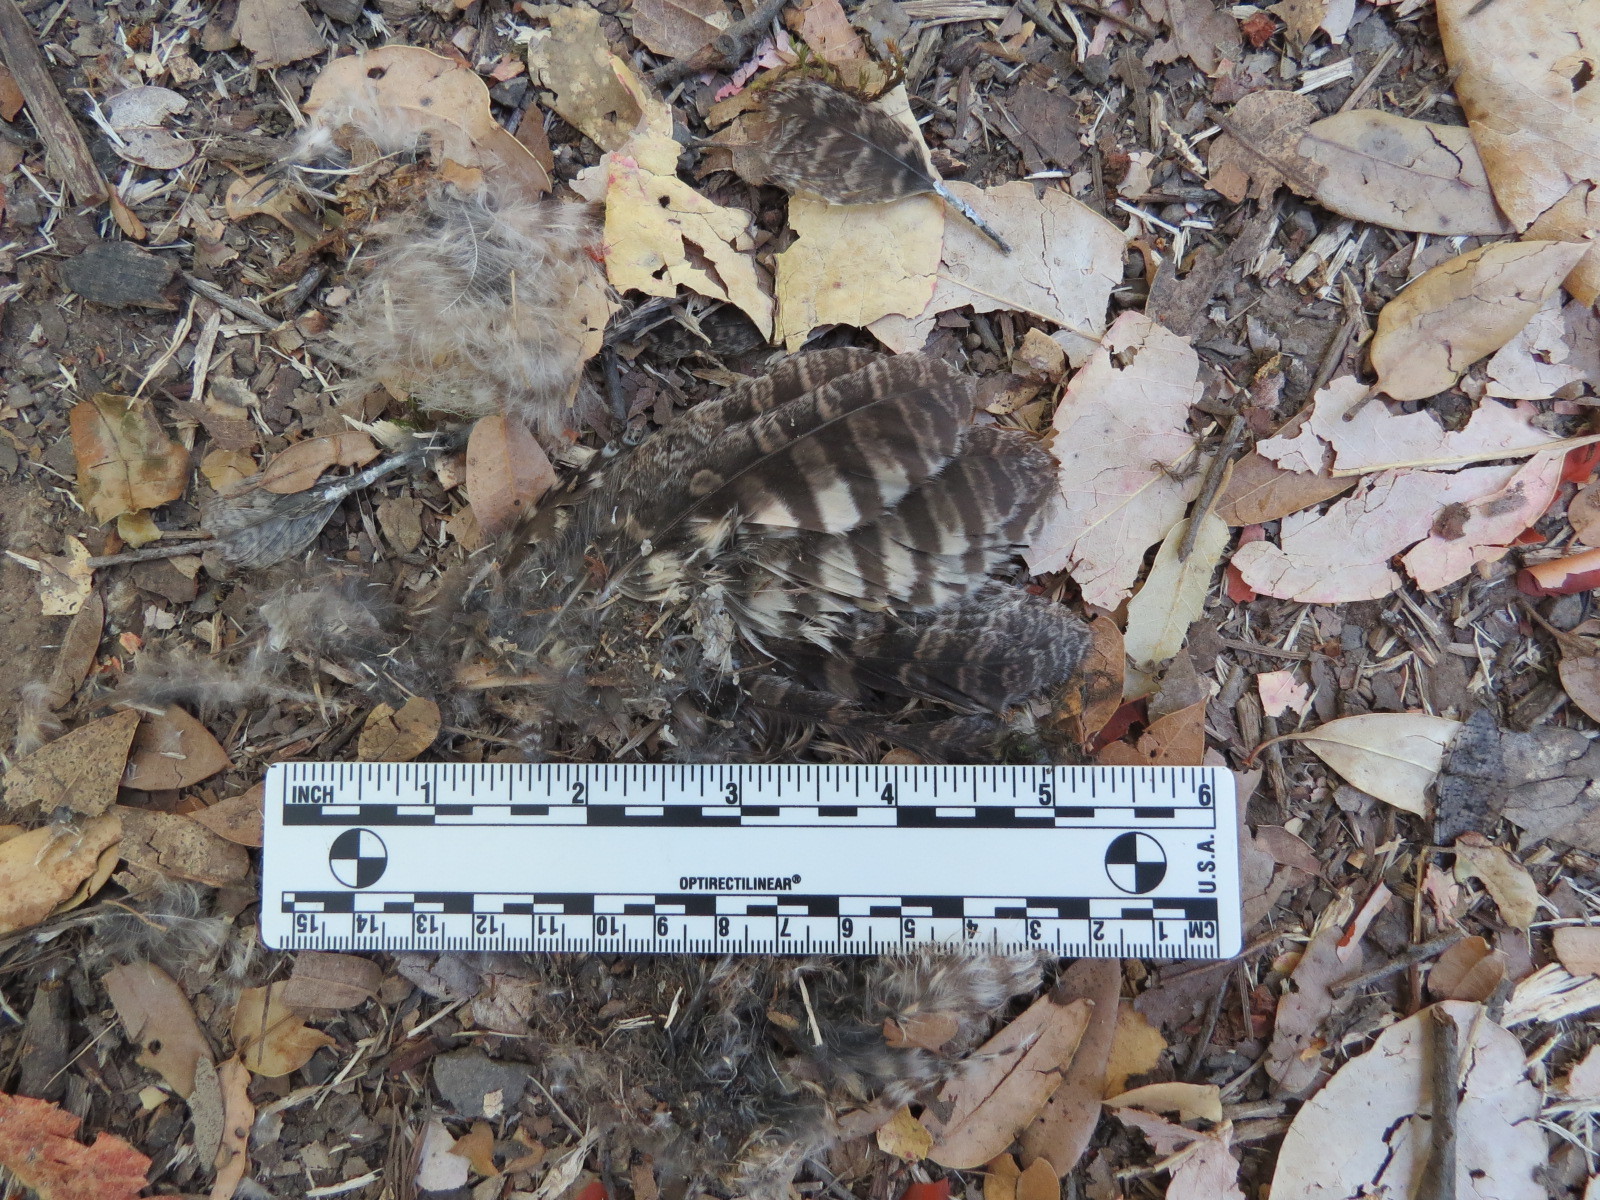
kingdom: Animalia
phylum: Chordata
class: Aves
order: Strigiformes
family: Strigidae
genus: Megascops
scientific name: Megascops kennicottii
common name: Western screech-owl
